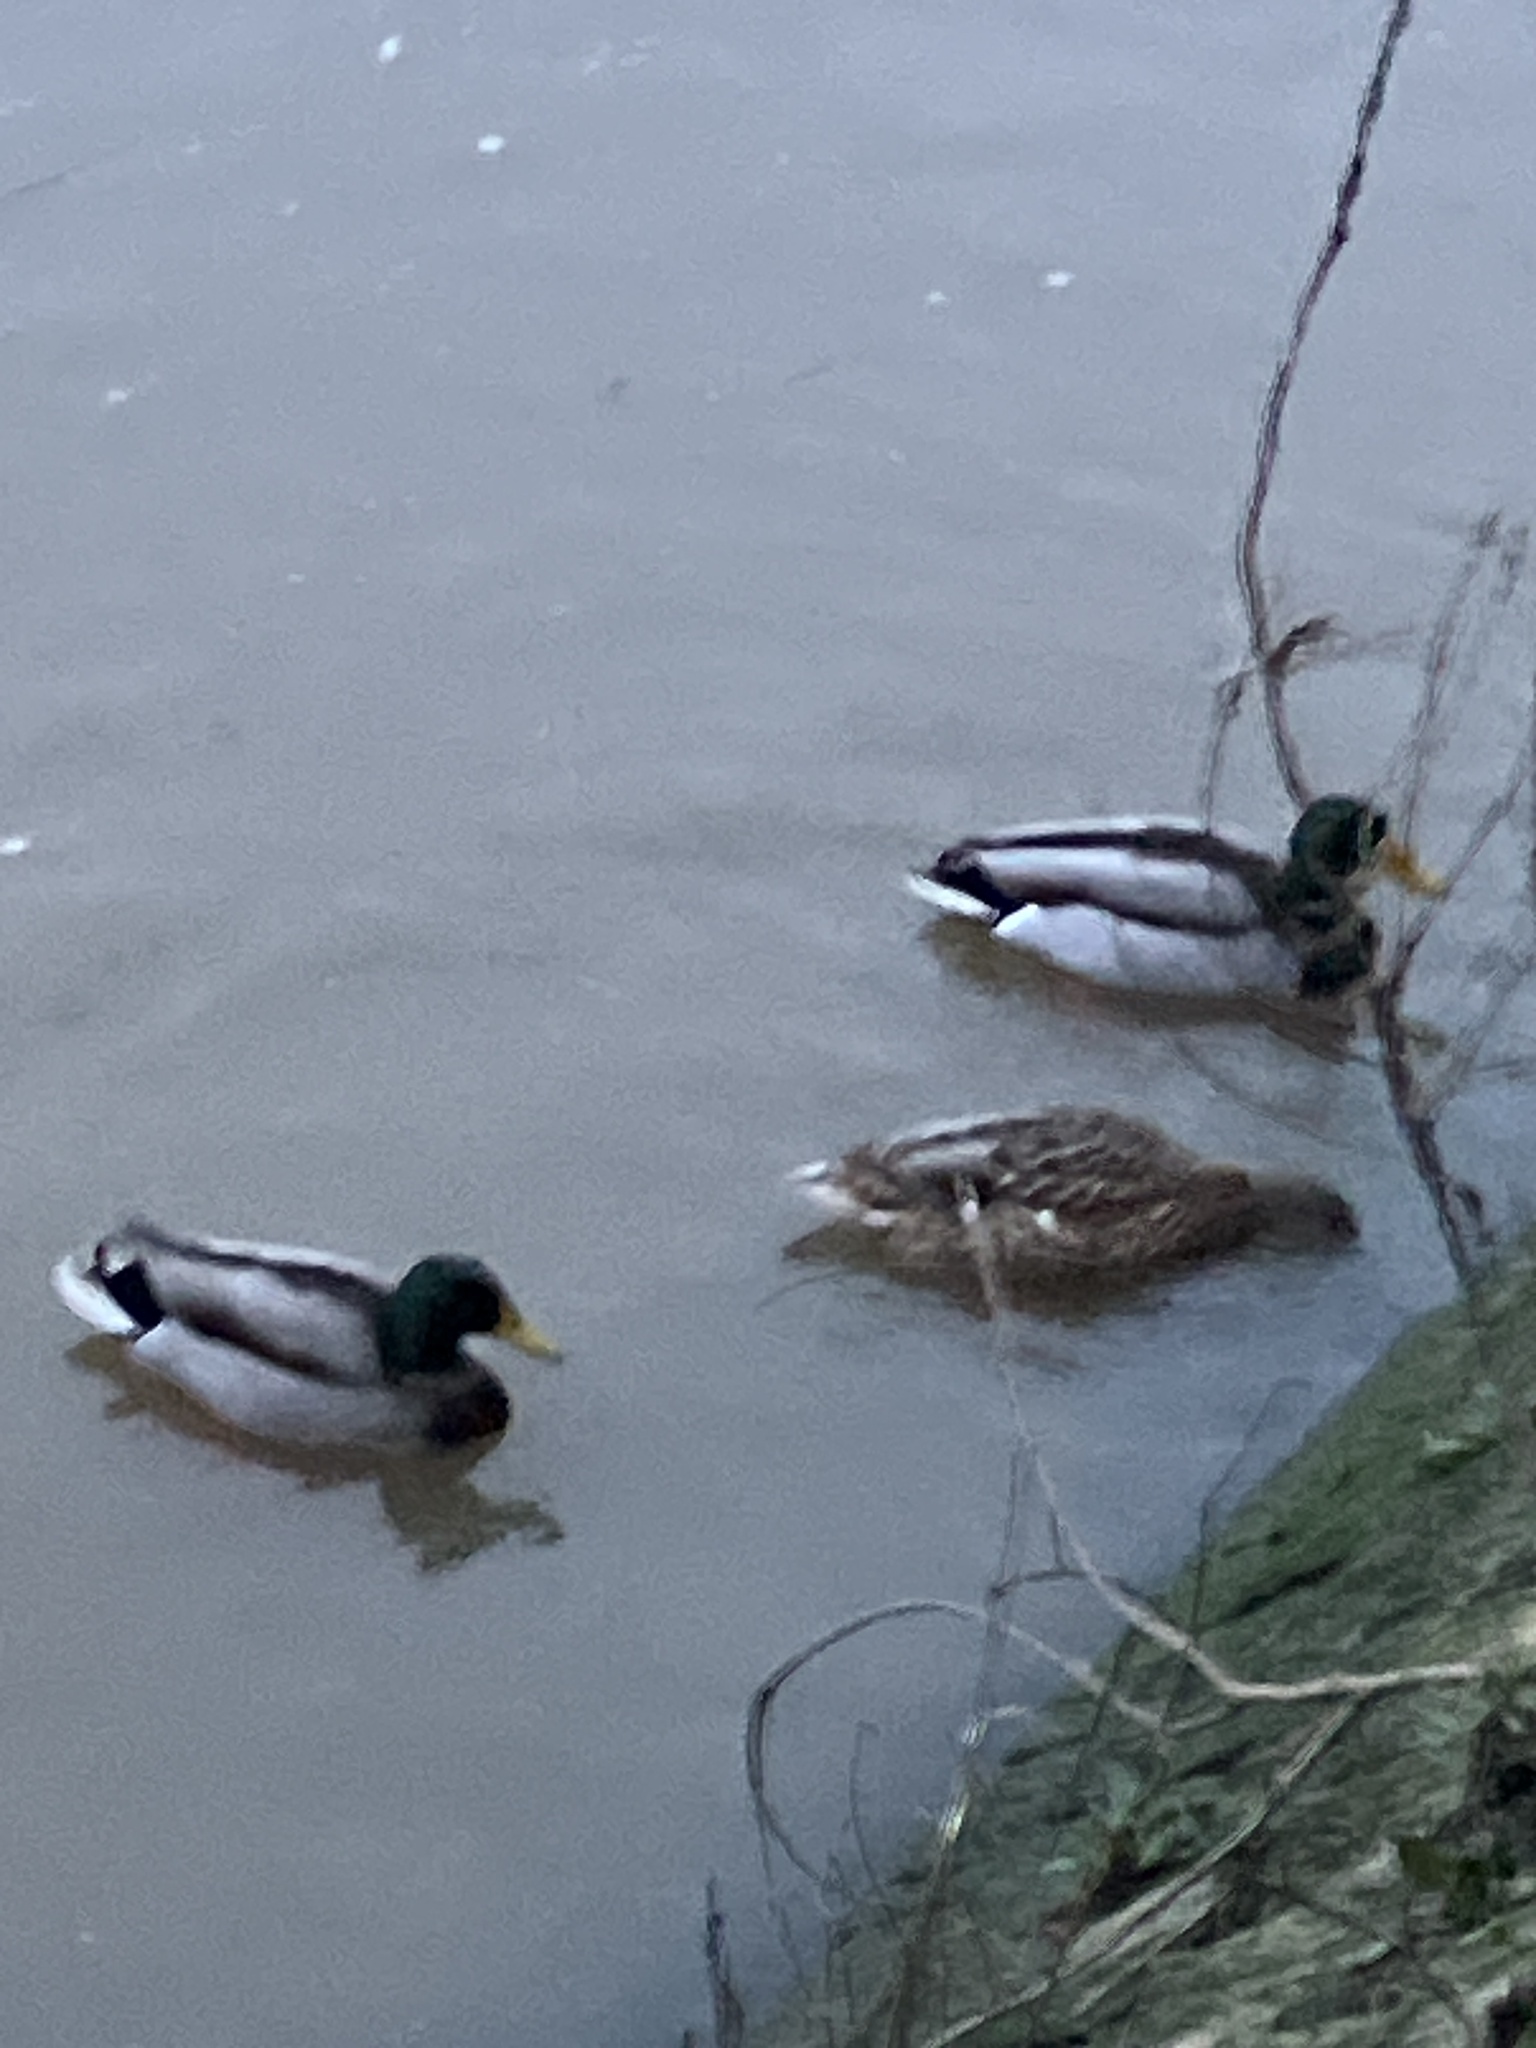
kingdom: Animalia
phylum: Chordata
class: Aves
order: Anseriformes
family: Anatidae
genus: Anas
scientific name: Anas platyrhynchos
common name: Mallard
